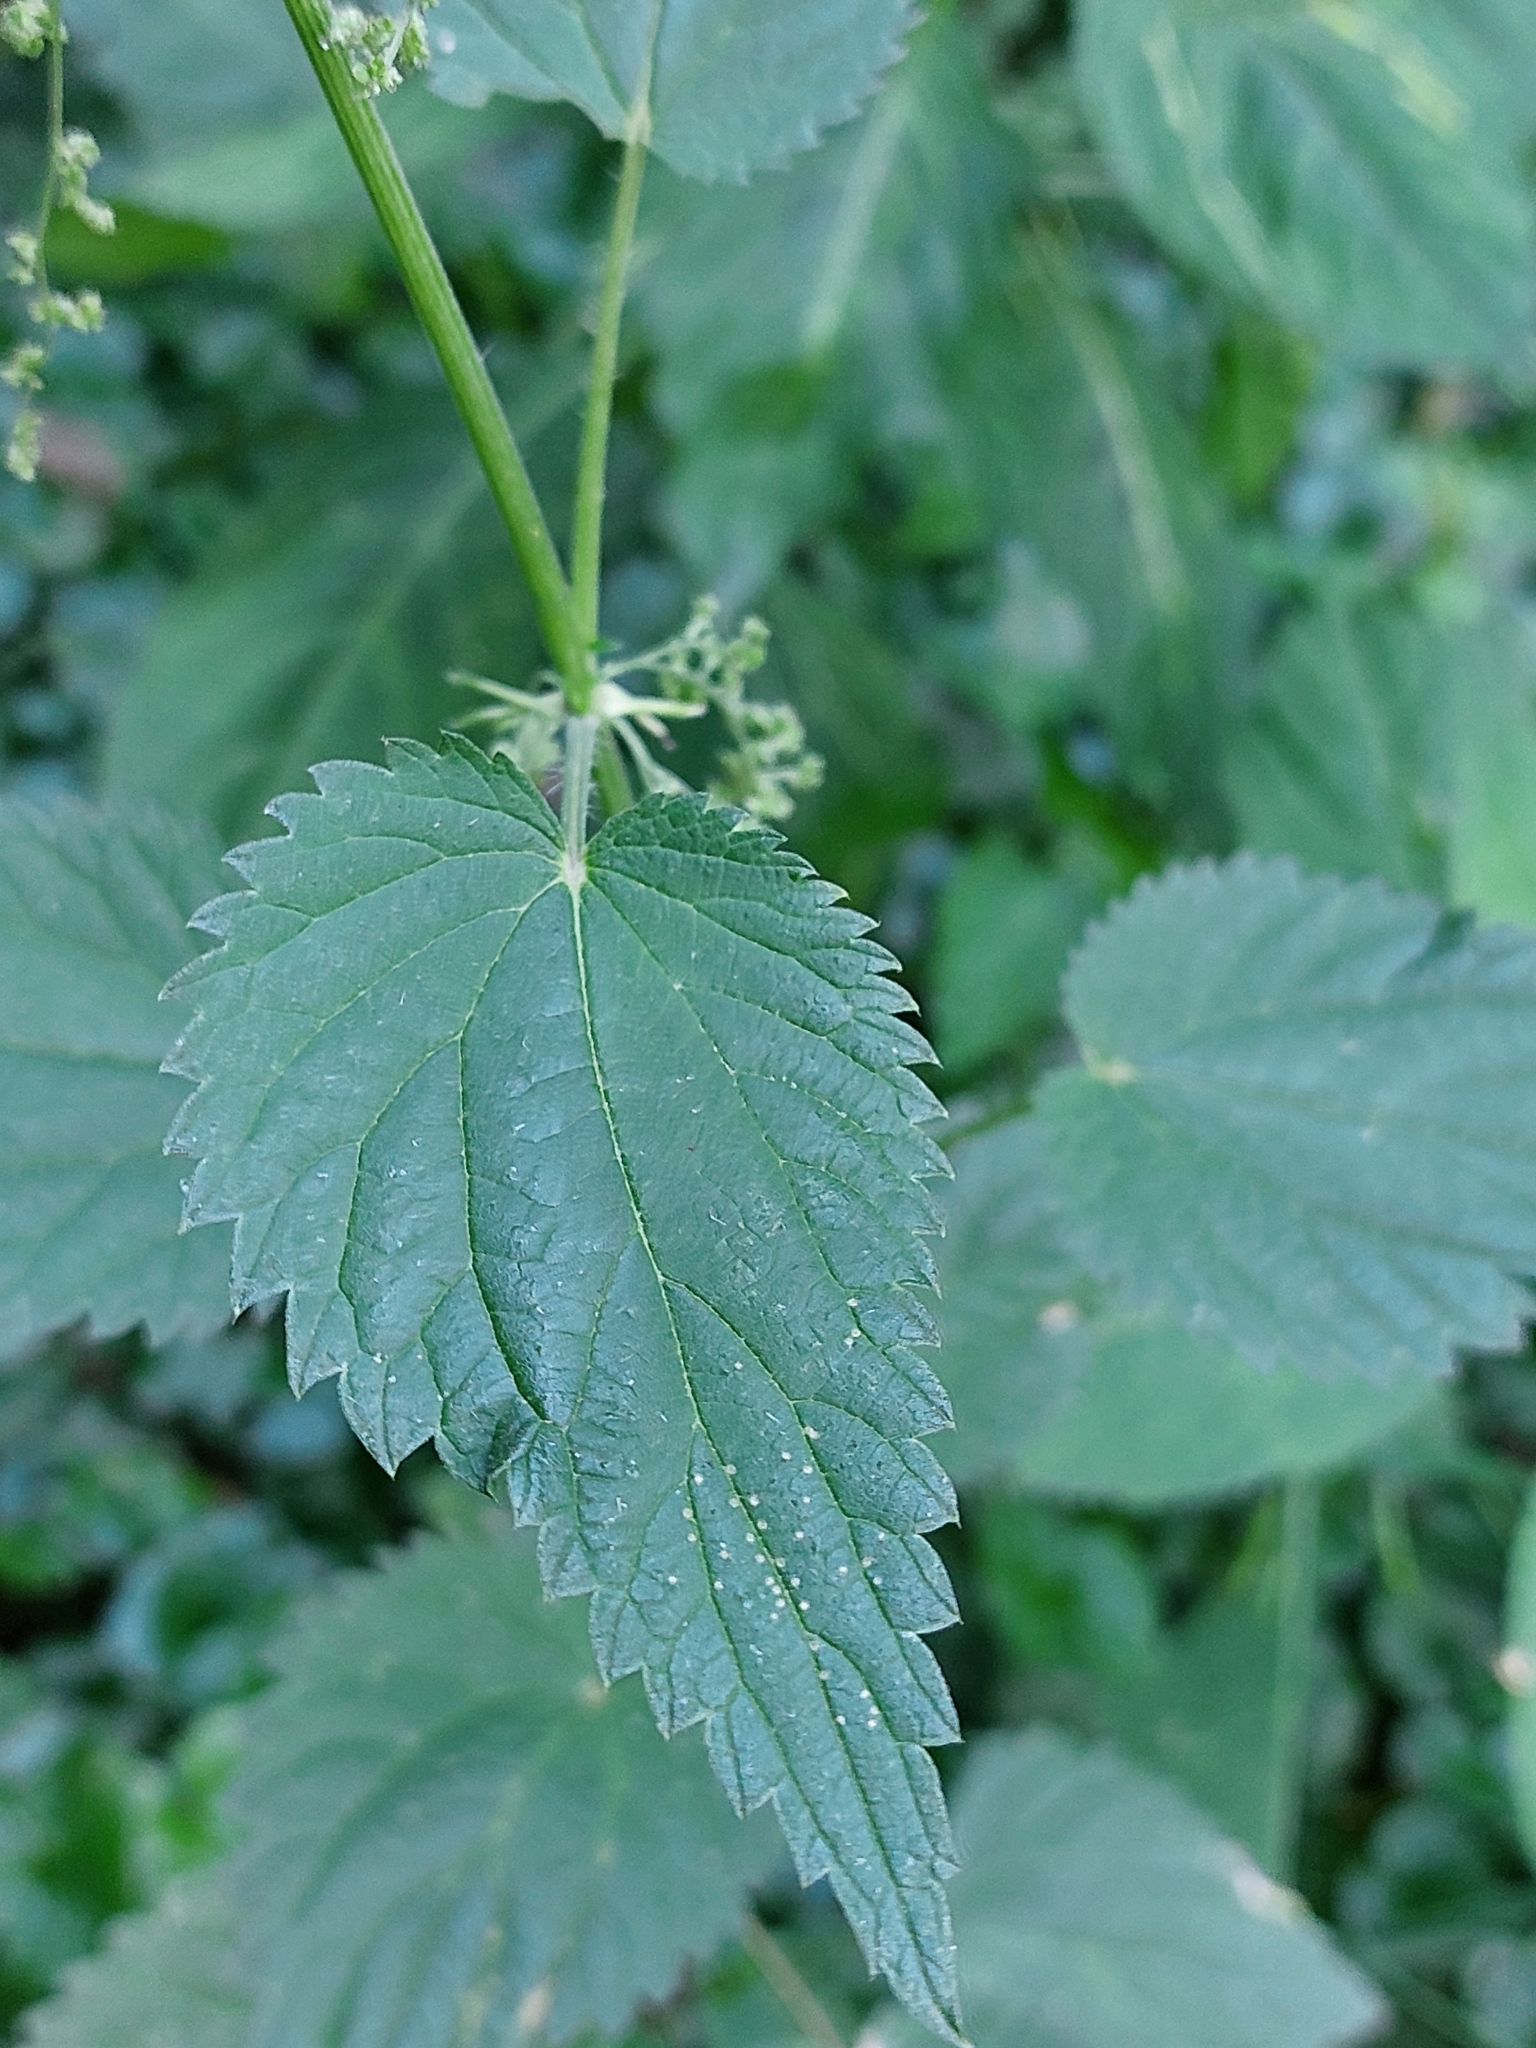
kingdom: Plantae
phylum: Tracheophyta
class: Magnoliopsida
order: Rosales
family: Urticaceae
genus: Urtica
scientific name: Urtica dioica
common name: Common nettle
